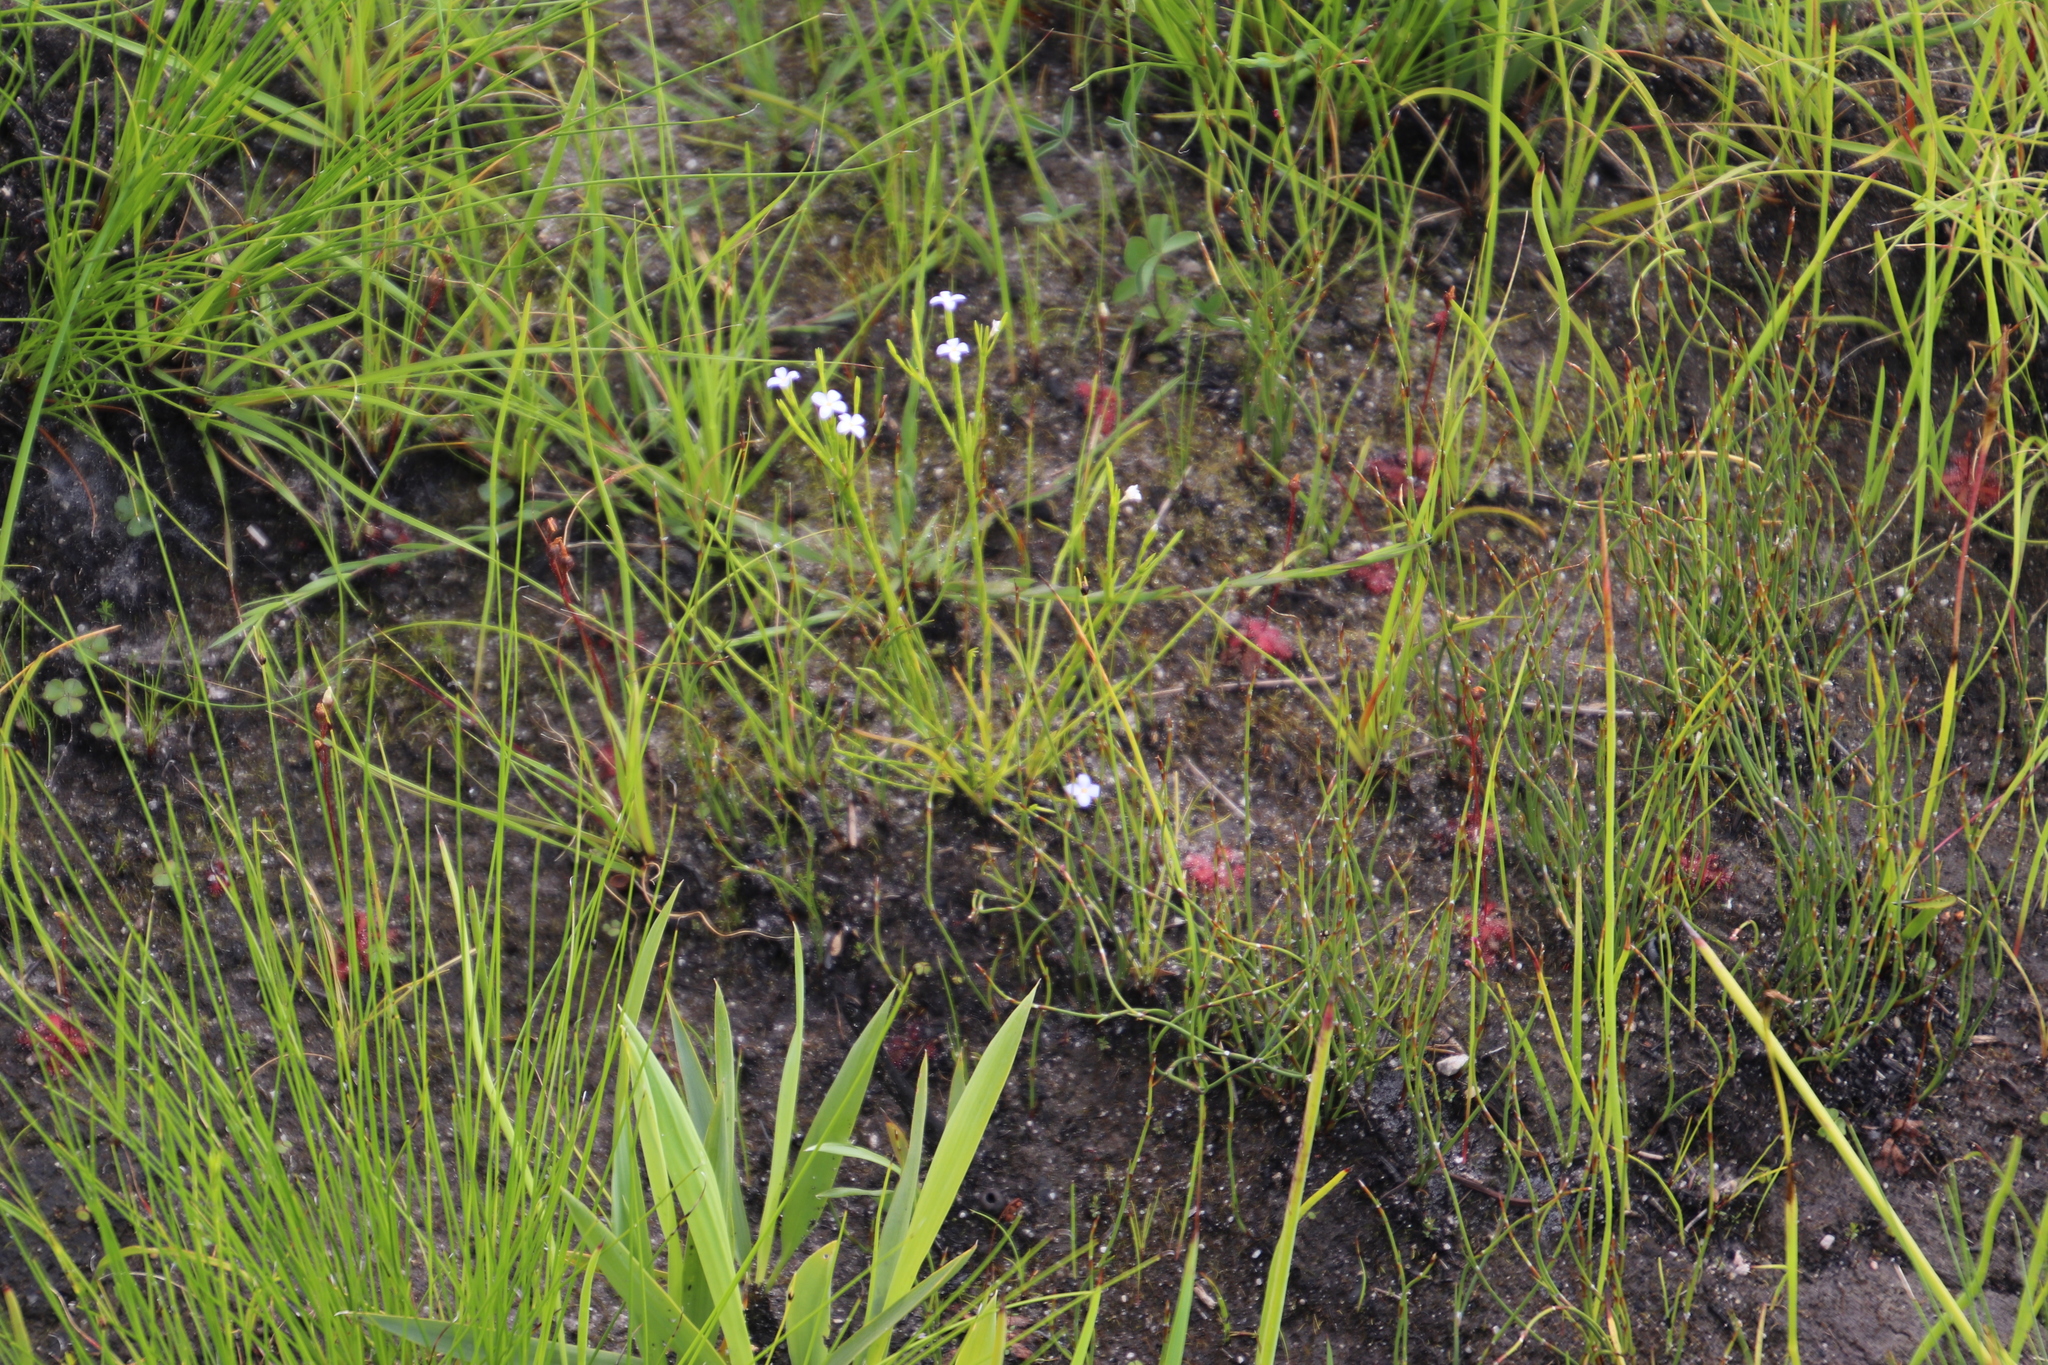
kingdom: Plantae
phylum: Tracheophyta
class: Magnoliopsida
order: Malvales
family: Thymelaeaceae
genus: Gnidia
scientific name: Gnidia linoides
